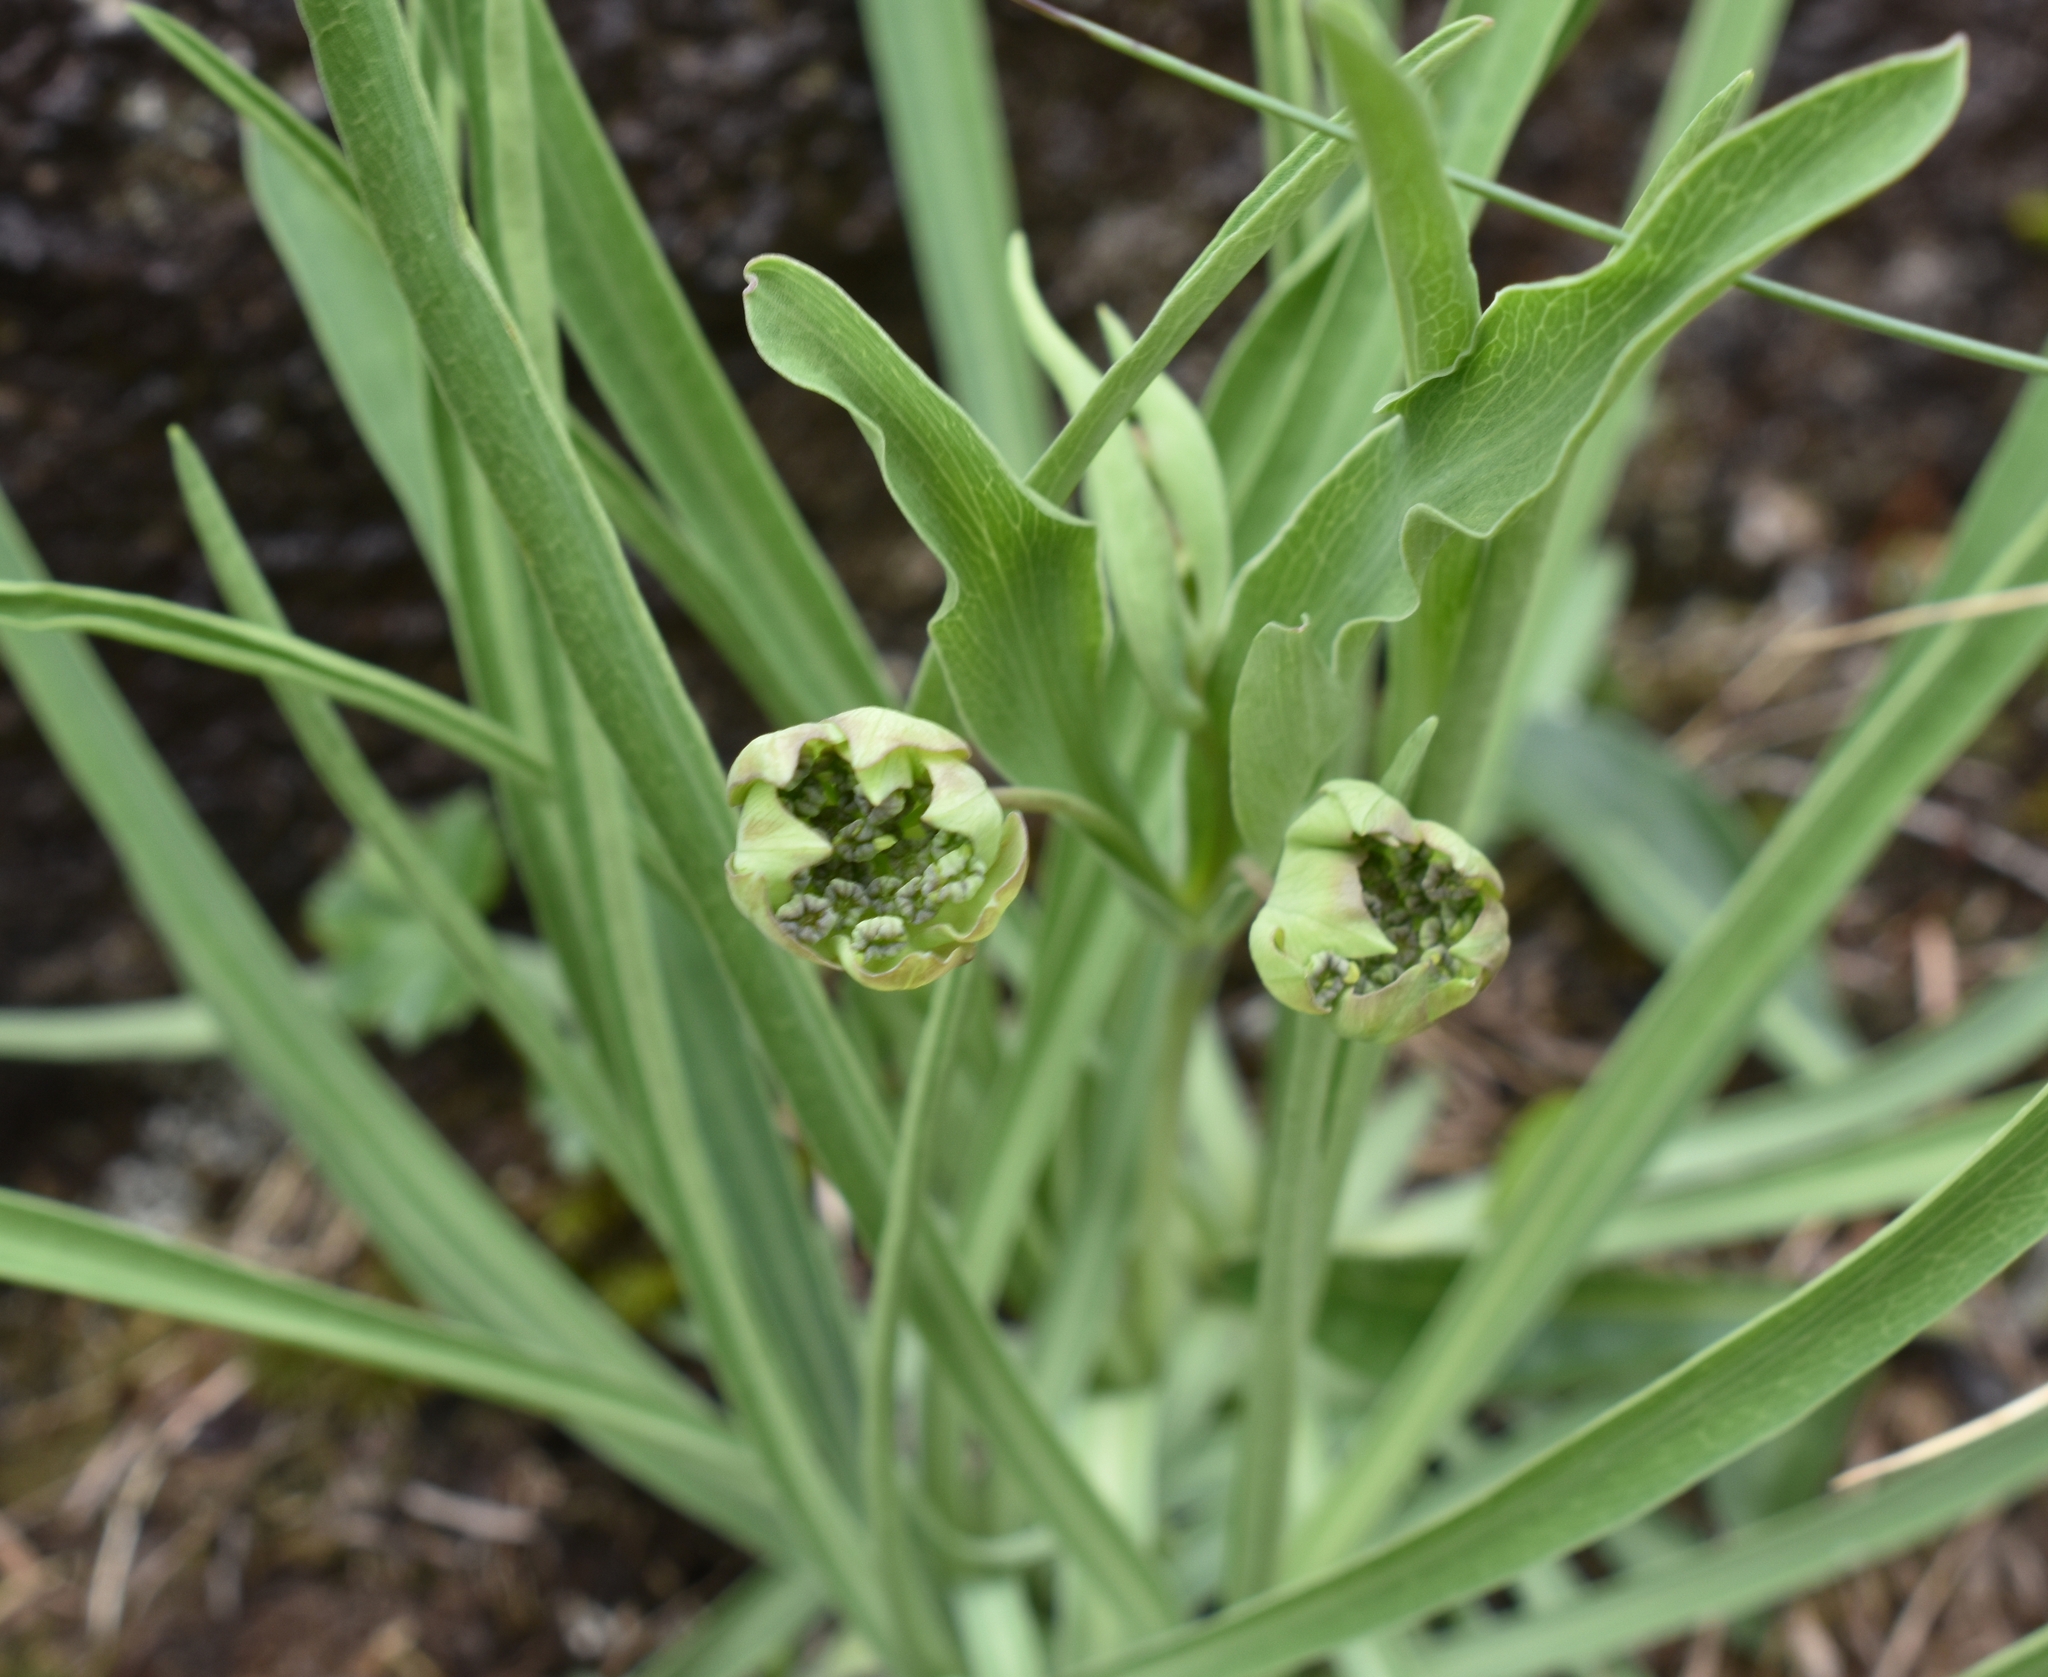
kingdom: Plantae
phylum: Tracheophyta
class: Magnoliopsida
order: Apiales
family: Apiaceae
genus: Bupleurum
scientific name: Bupleurum stellatum
